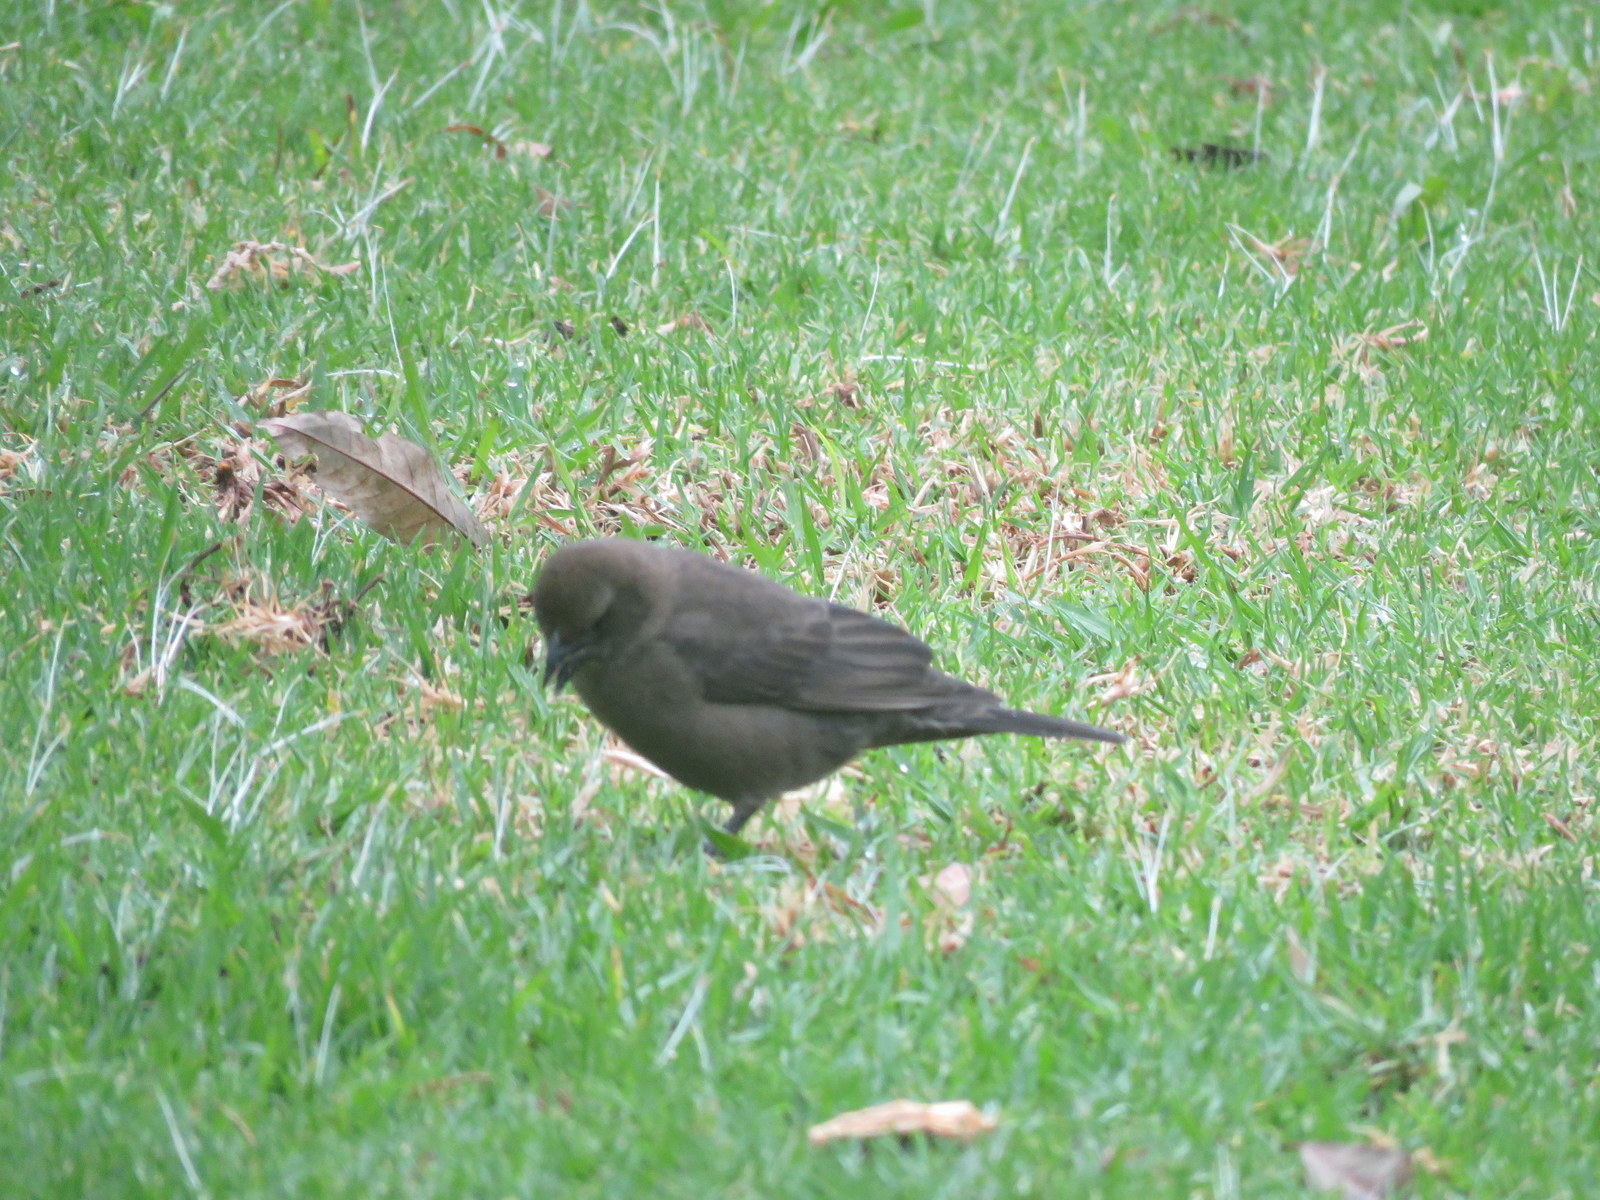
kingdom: Animalia
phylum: Chordata
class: Aves
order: Passeriformes
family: Icteridae
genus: Molothrus
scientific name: Molothrus bonariensis
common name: Shiny cowbird
